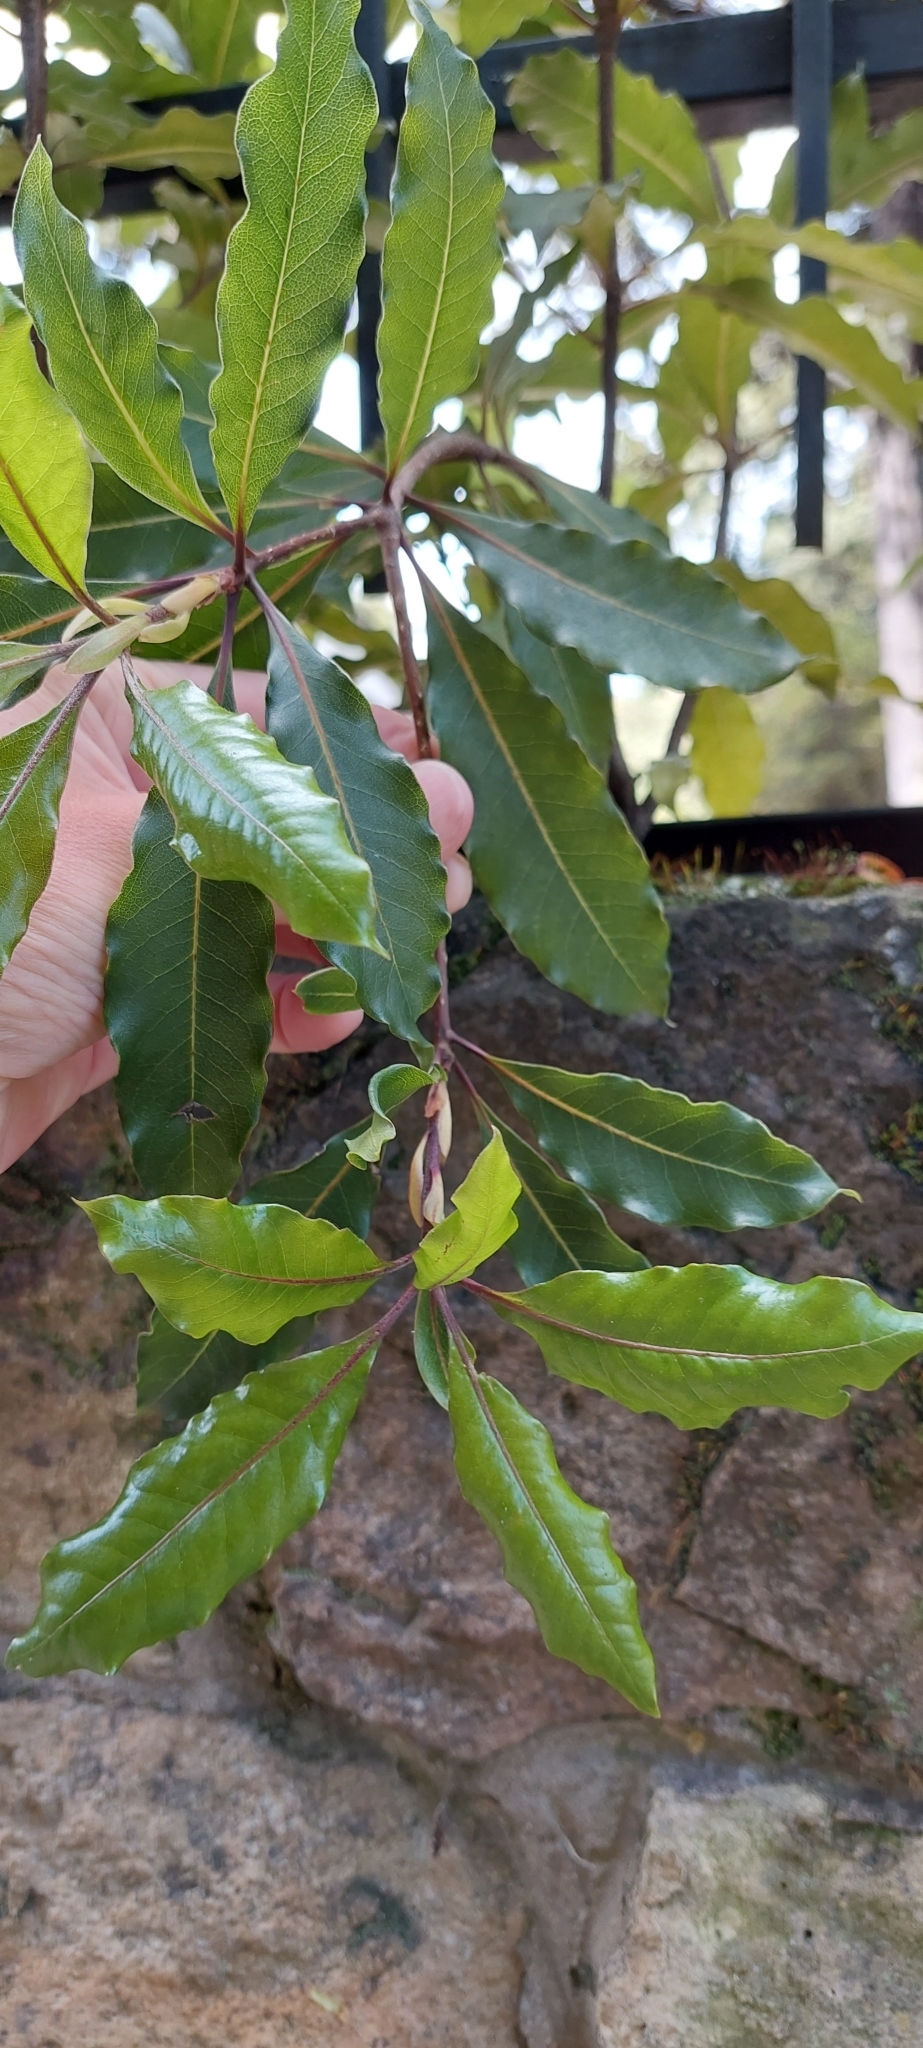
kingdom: Plantae
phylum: Tracheophyta
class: Magnoliopsida
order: Apiales
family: Pittosporaceae
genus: Pittosporum
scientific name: Pittosporum undulatum
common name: Australian cheesewood
